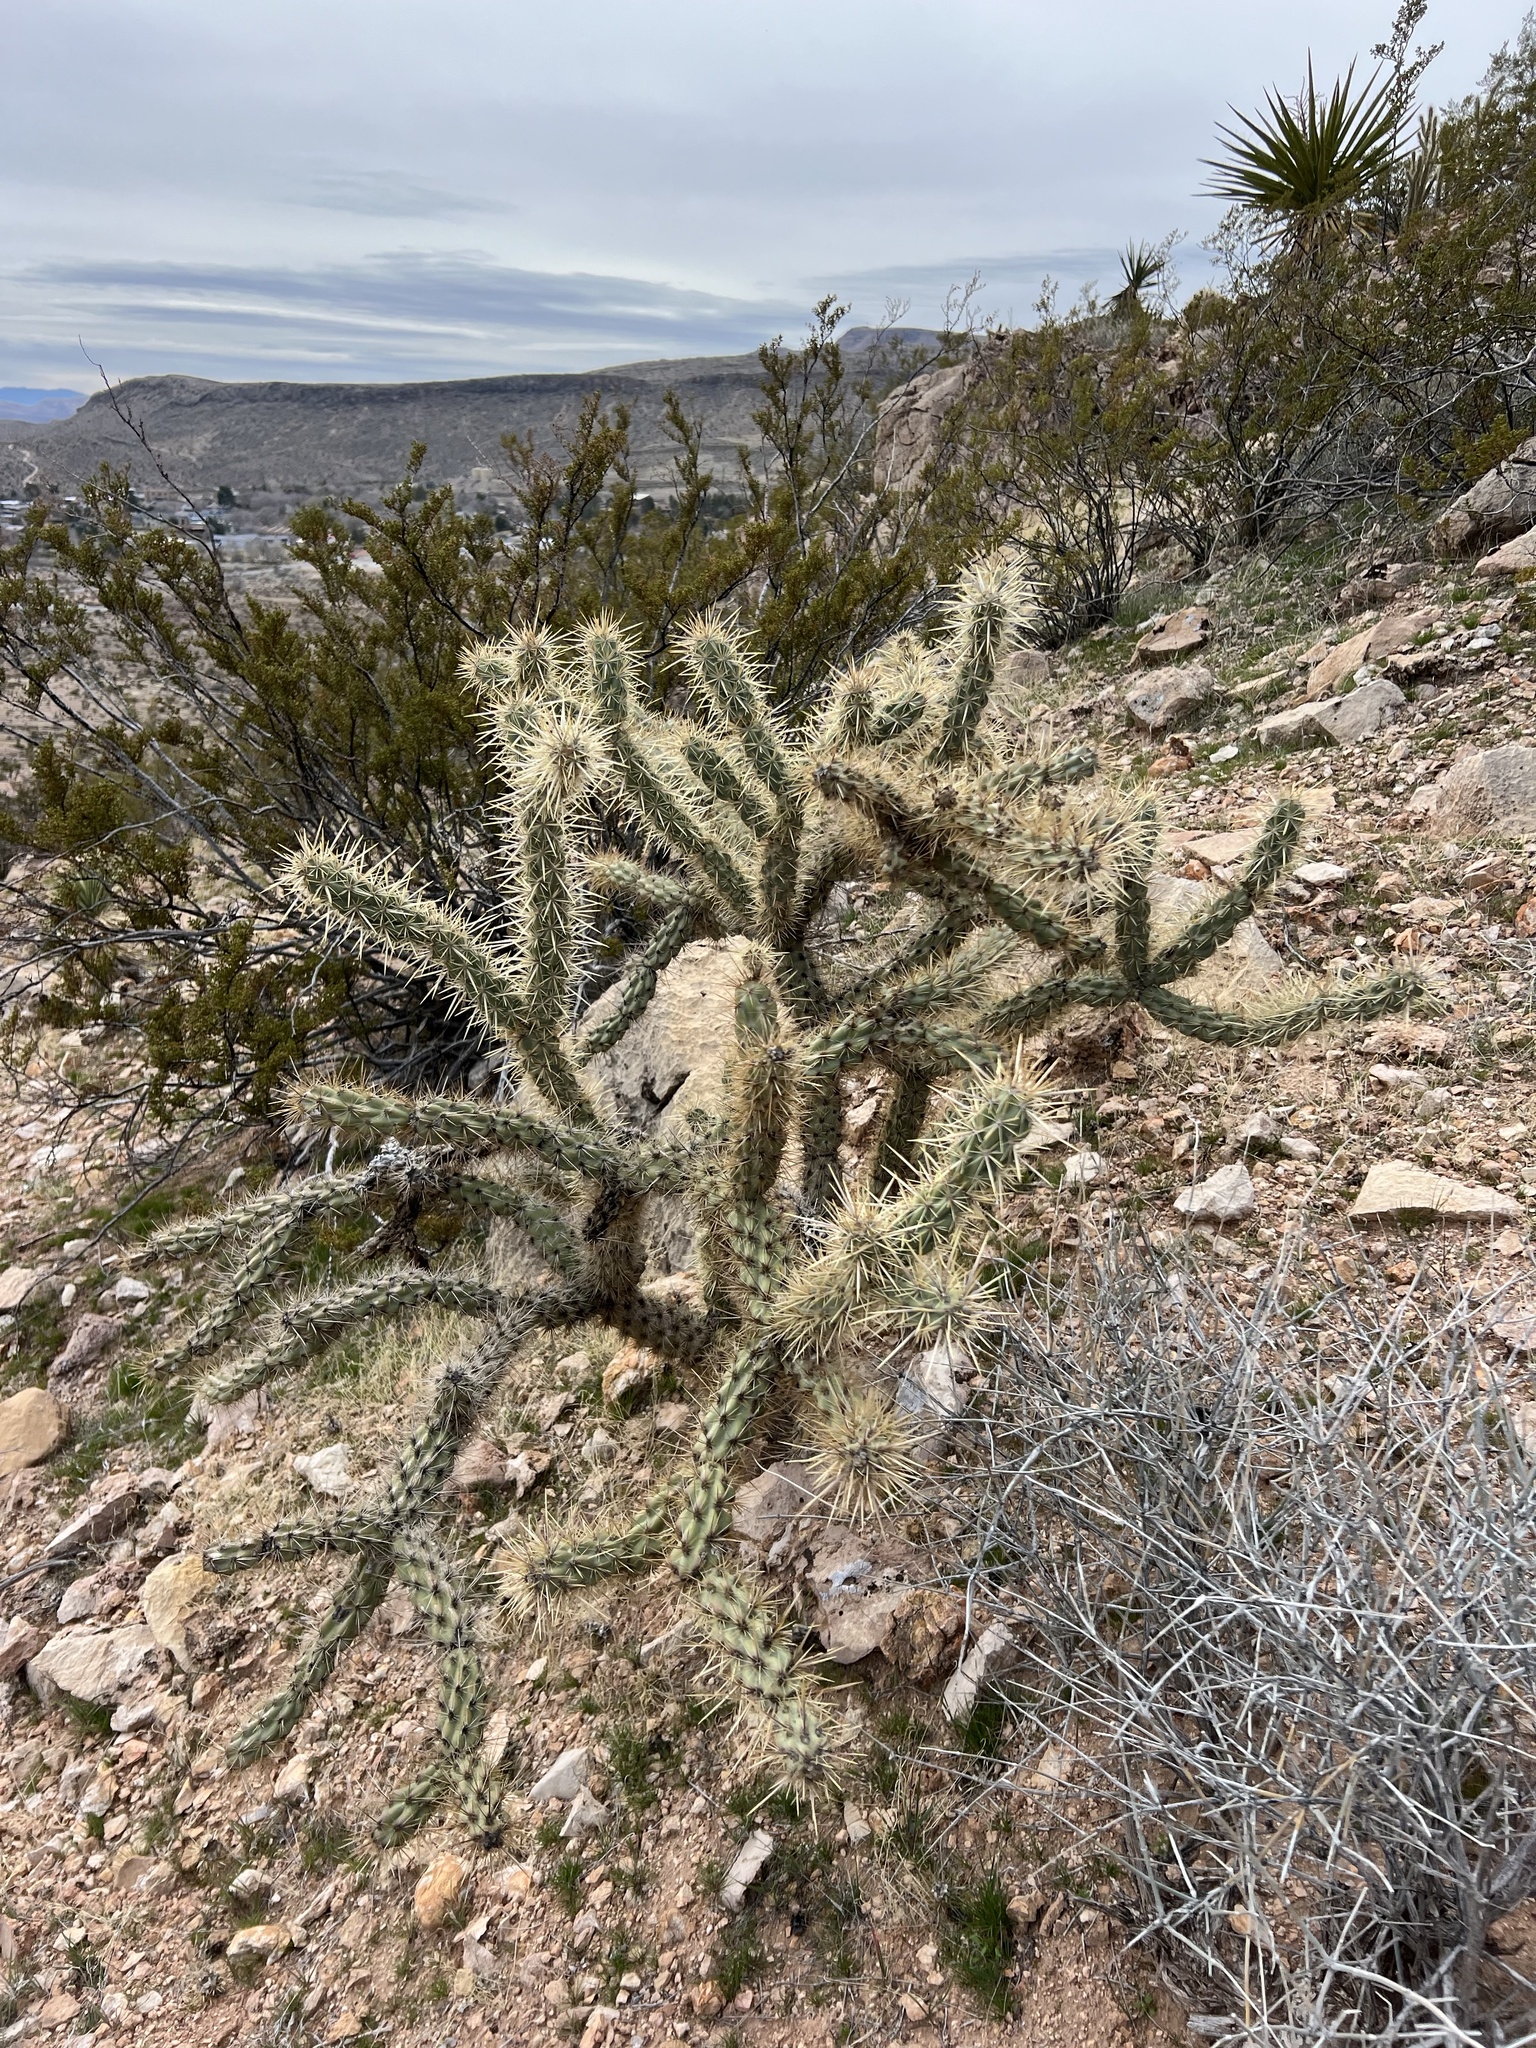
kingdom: Plantae
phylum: Tracheophyta
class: Magnoliopsida
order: Caryophyllales
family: Cactaceae
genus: Cylindropuntia
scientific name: Cylindropuntia acanthocarpa
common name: Buckhorn cholla
